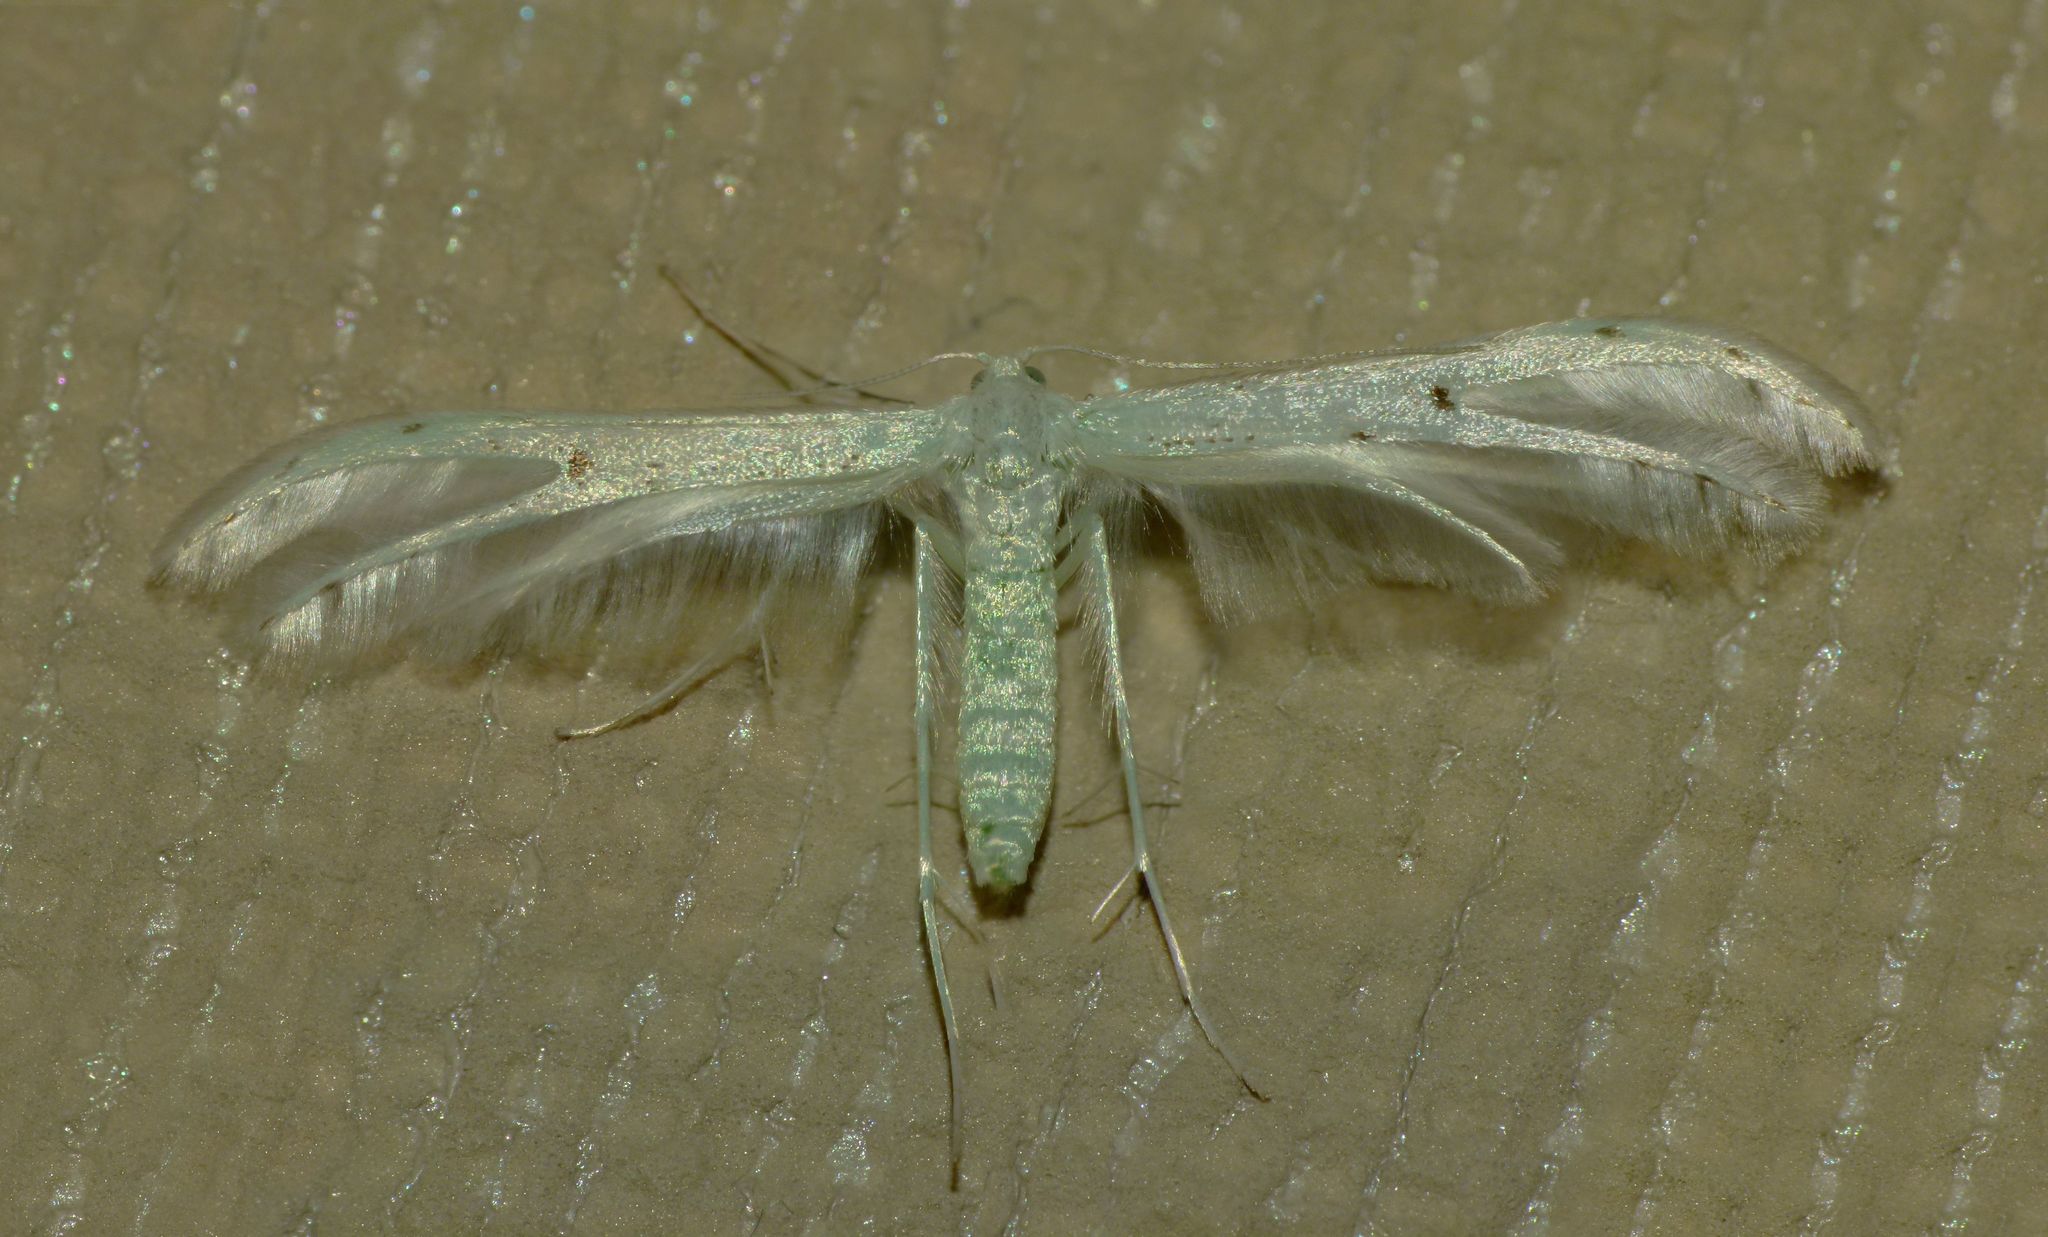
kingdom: Animalia
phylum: Arthropoda
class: Insecta
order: Lepidoptera
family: Pterophoridae
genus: Pterophorus
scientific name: Pterophorus monospilalis
